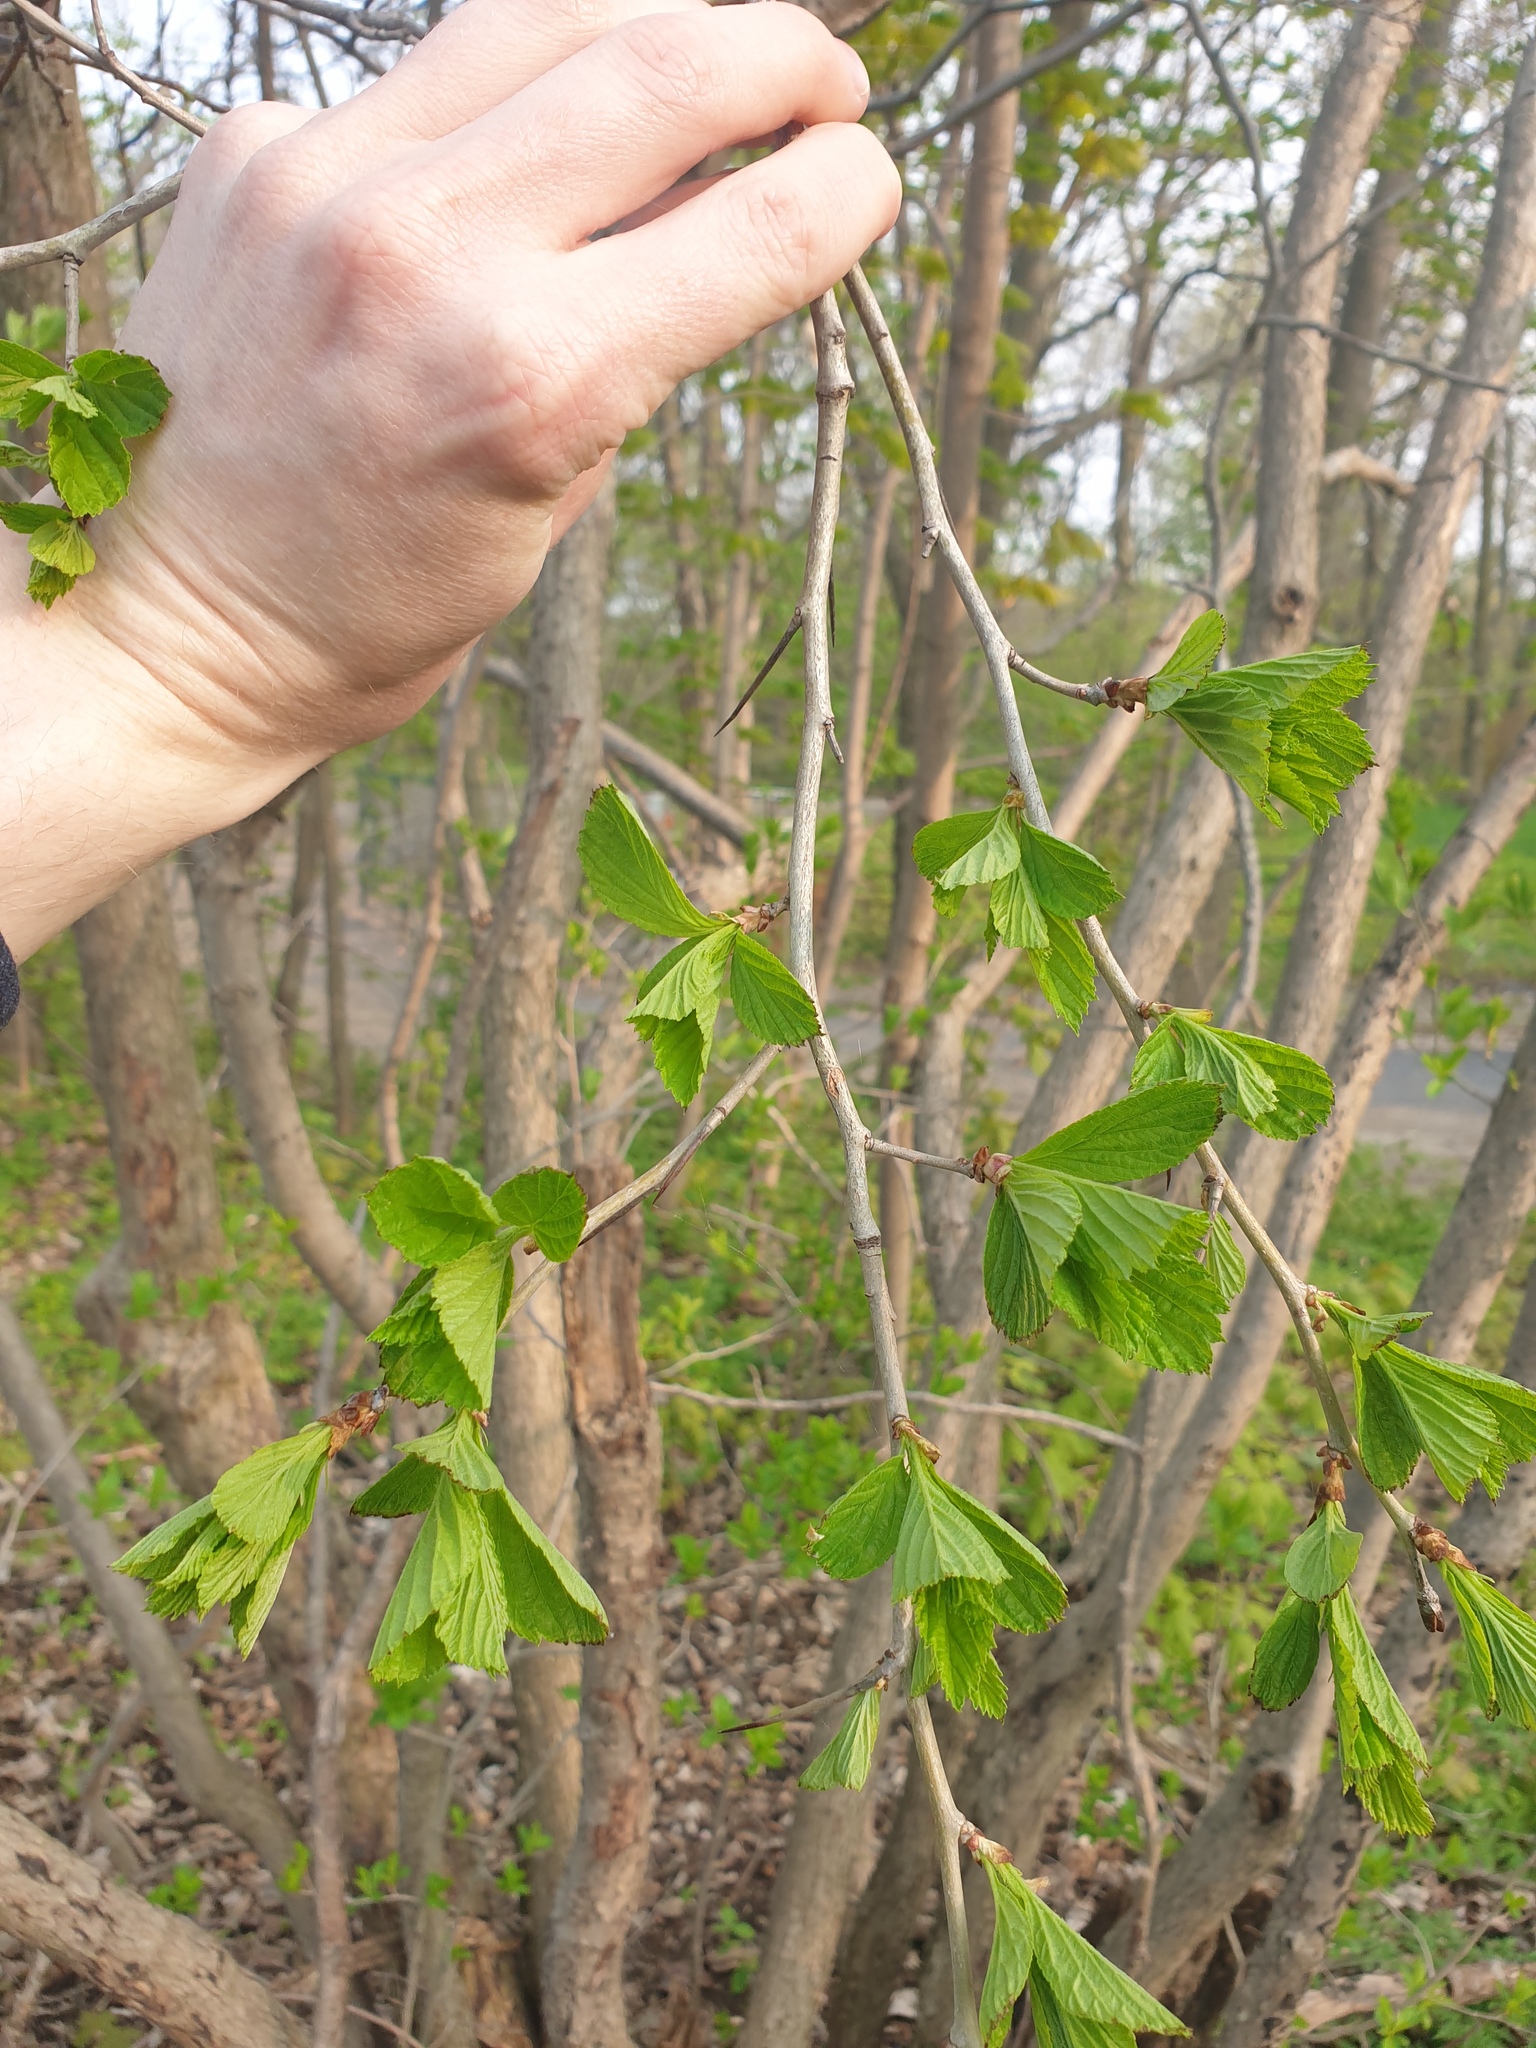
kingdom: Plantae
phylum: Tracheophyta
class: Magnoliopsida
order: Rosales
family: Rosaceae
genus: Crataegus
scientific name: Crataegus suborbiculata
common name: Caughnawaga hawthorn
